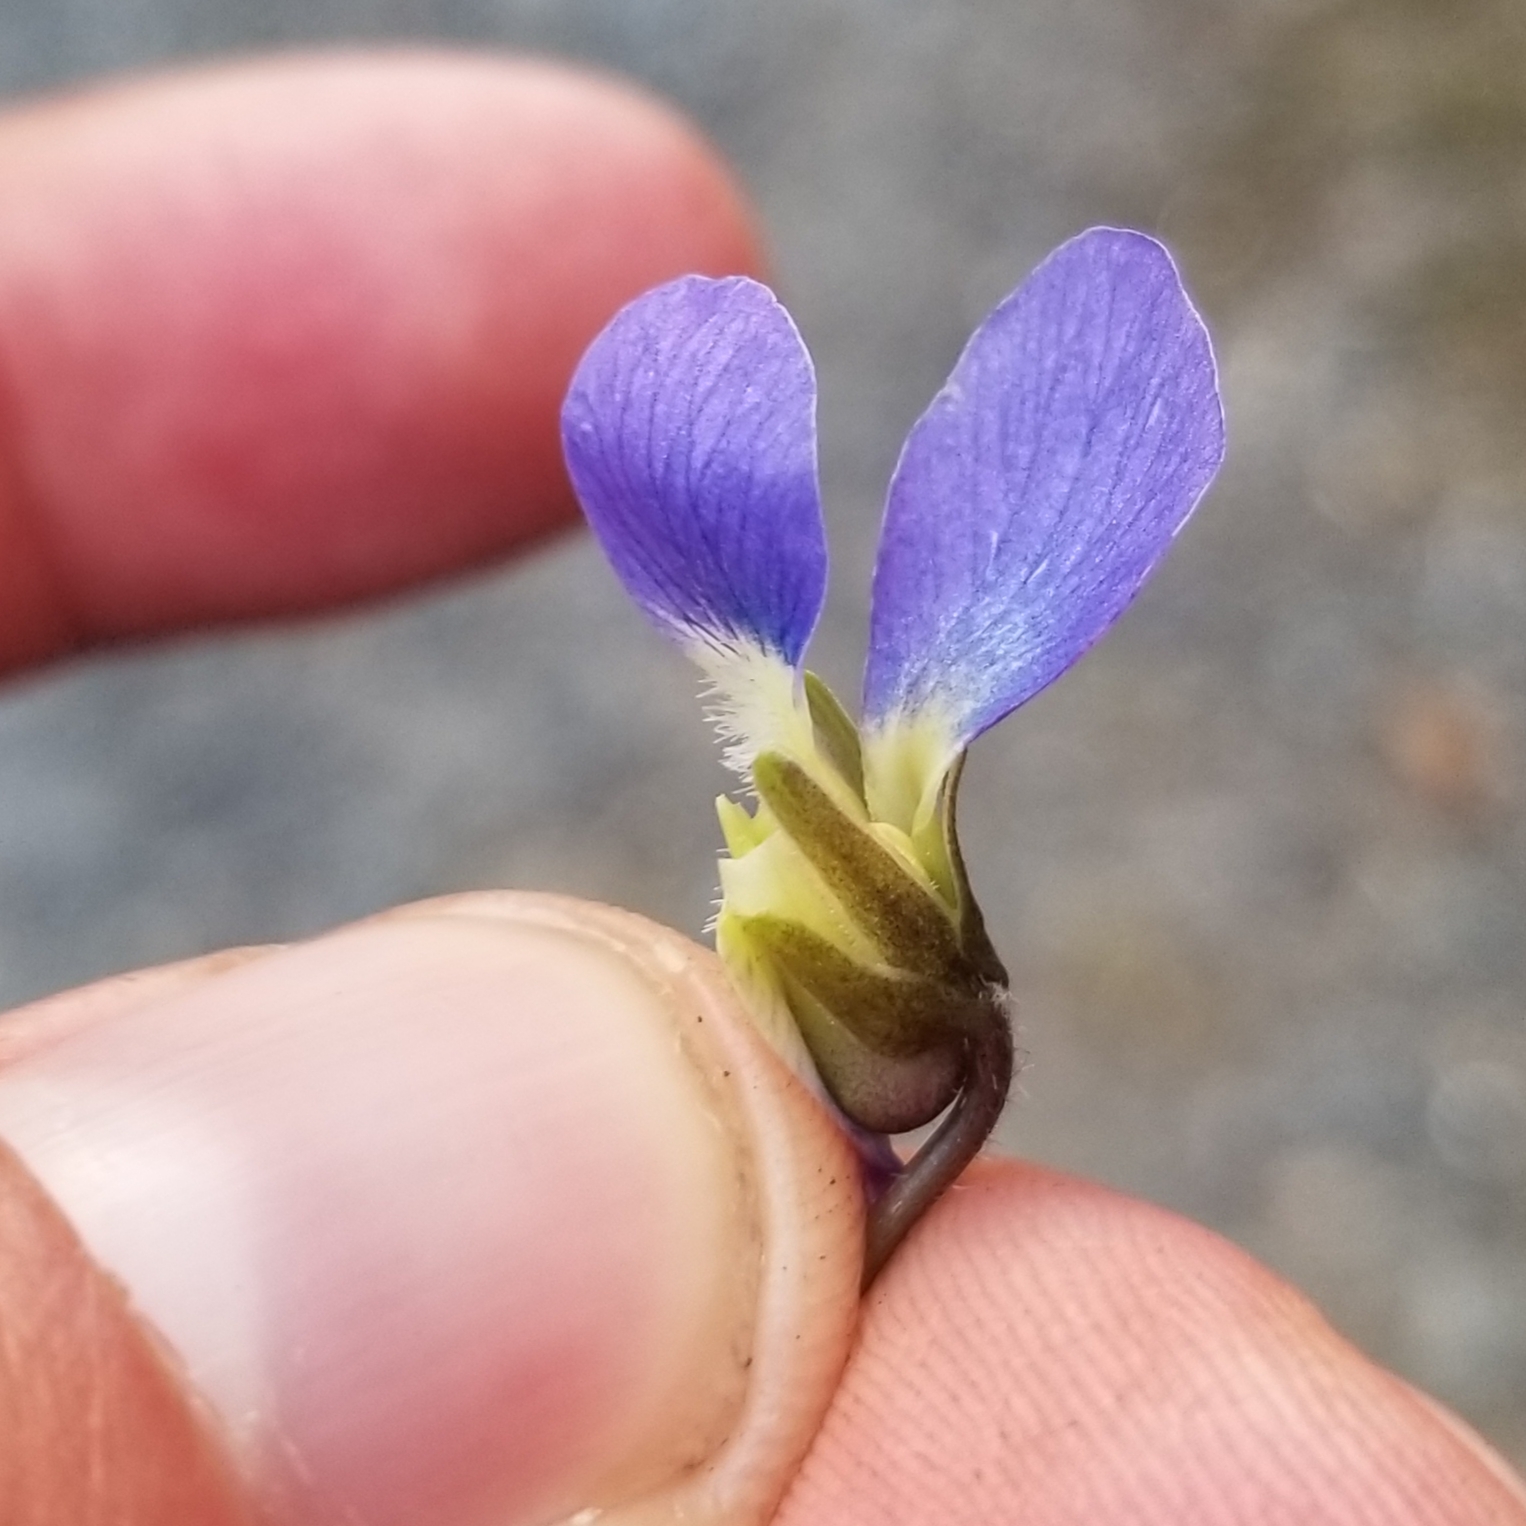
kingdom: Plantae
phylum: Tracheophyta
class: Magnoliopsida
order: Malpighiales
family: Violaceae
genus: Viola
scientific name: Viola sororia
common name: Dooryard violet
